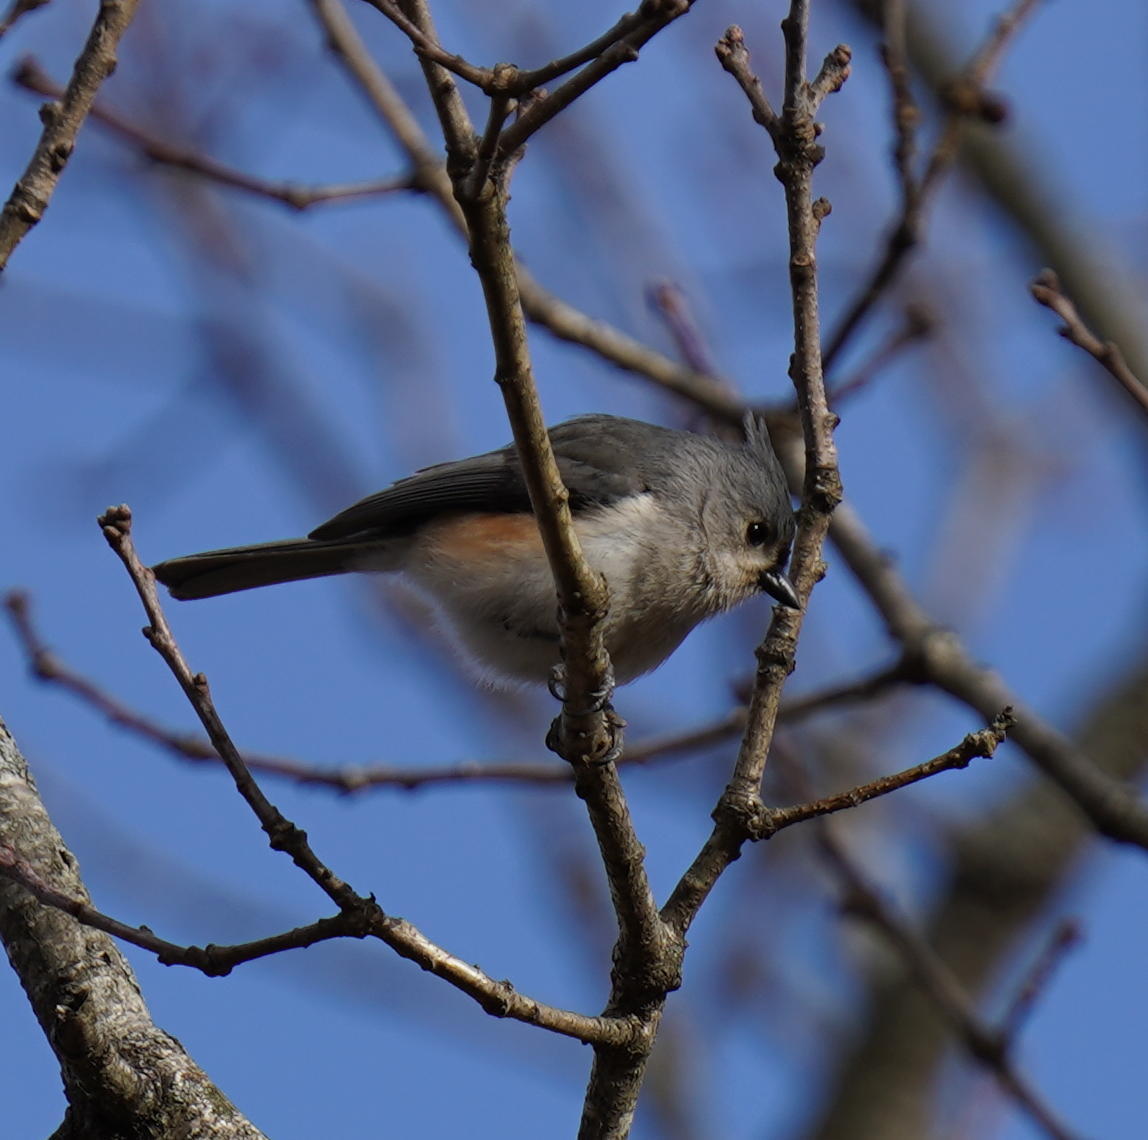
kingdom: Animalia
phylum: Chordata
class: Aves
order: Passeriformes
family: Paridae
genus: Baeolophus
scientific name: Baeolophus bicolor
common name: Tufted titmouse
